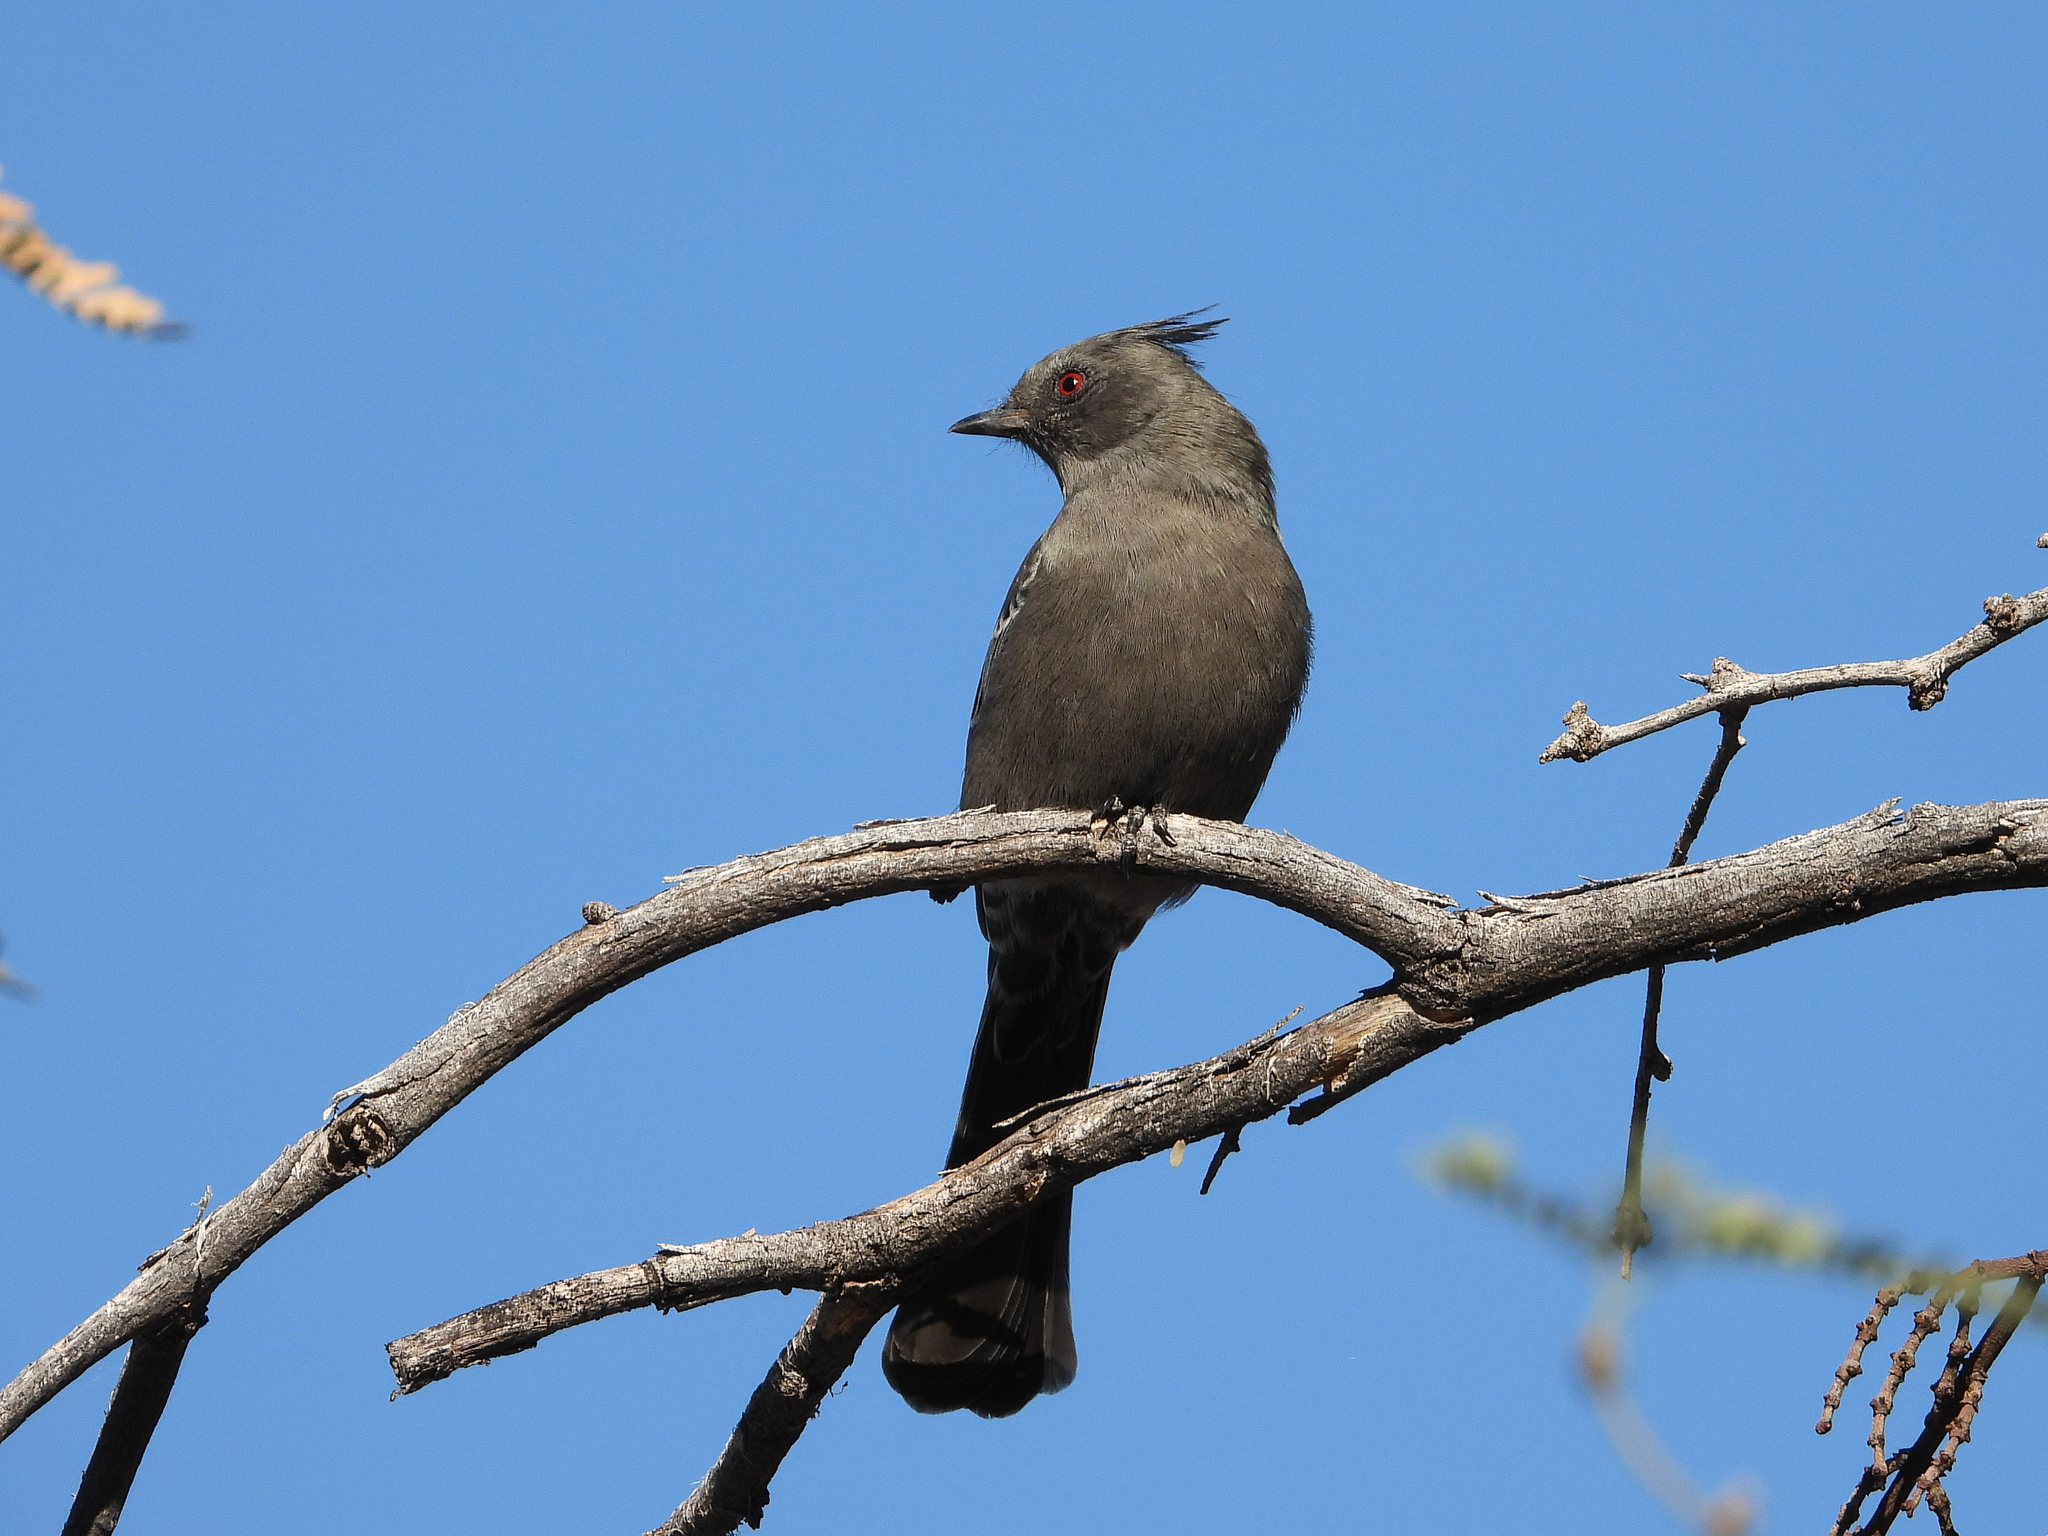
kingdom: Animalia
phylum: Chordata
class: Aves
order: Passeriformes
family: Ptilogonatidae
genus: Phainopepla
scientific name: Phainopepla nitens
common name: Phainopepla
